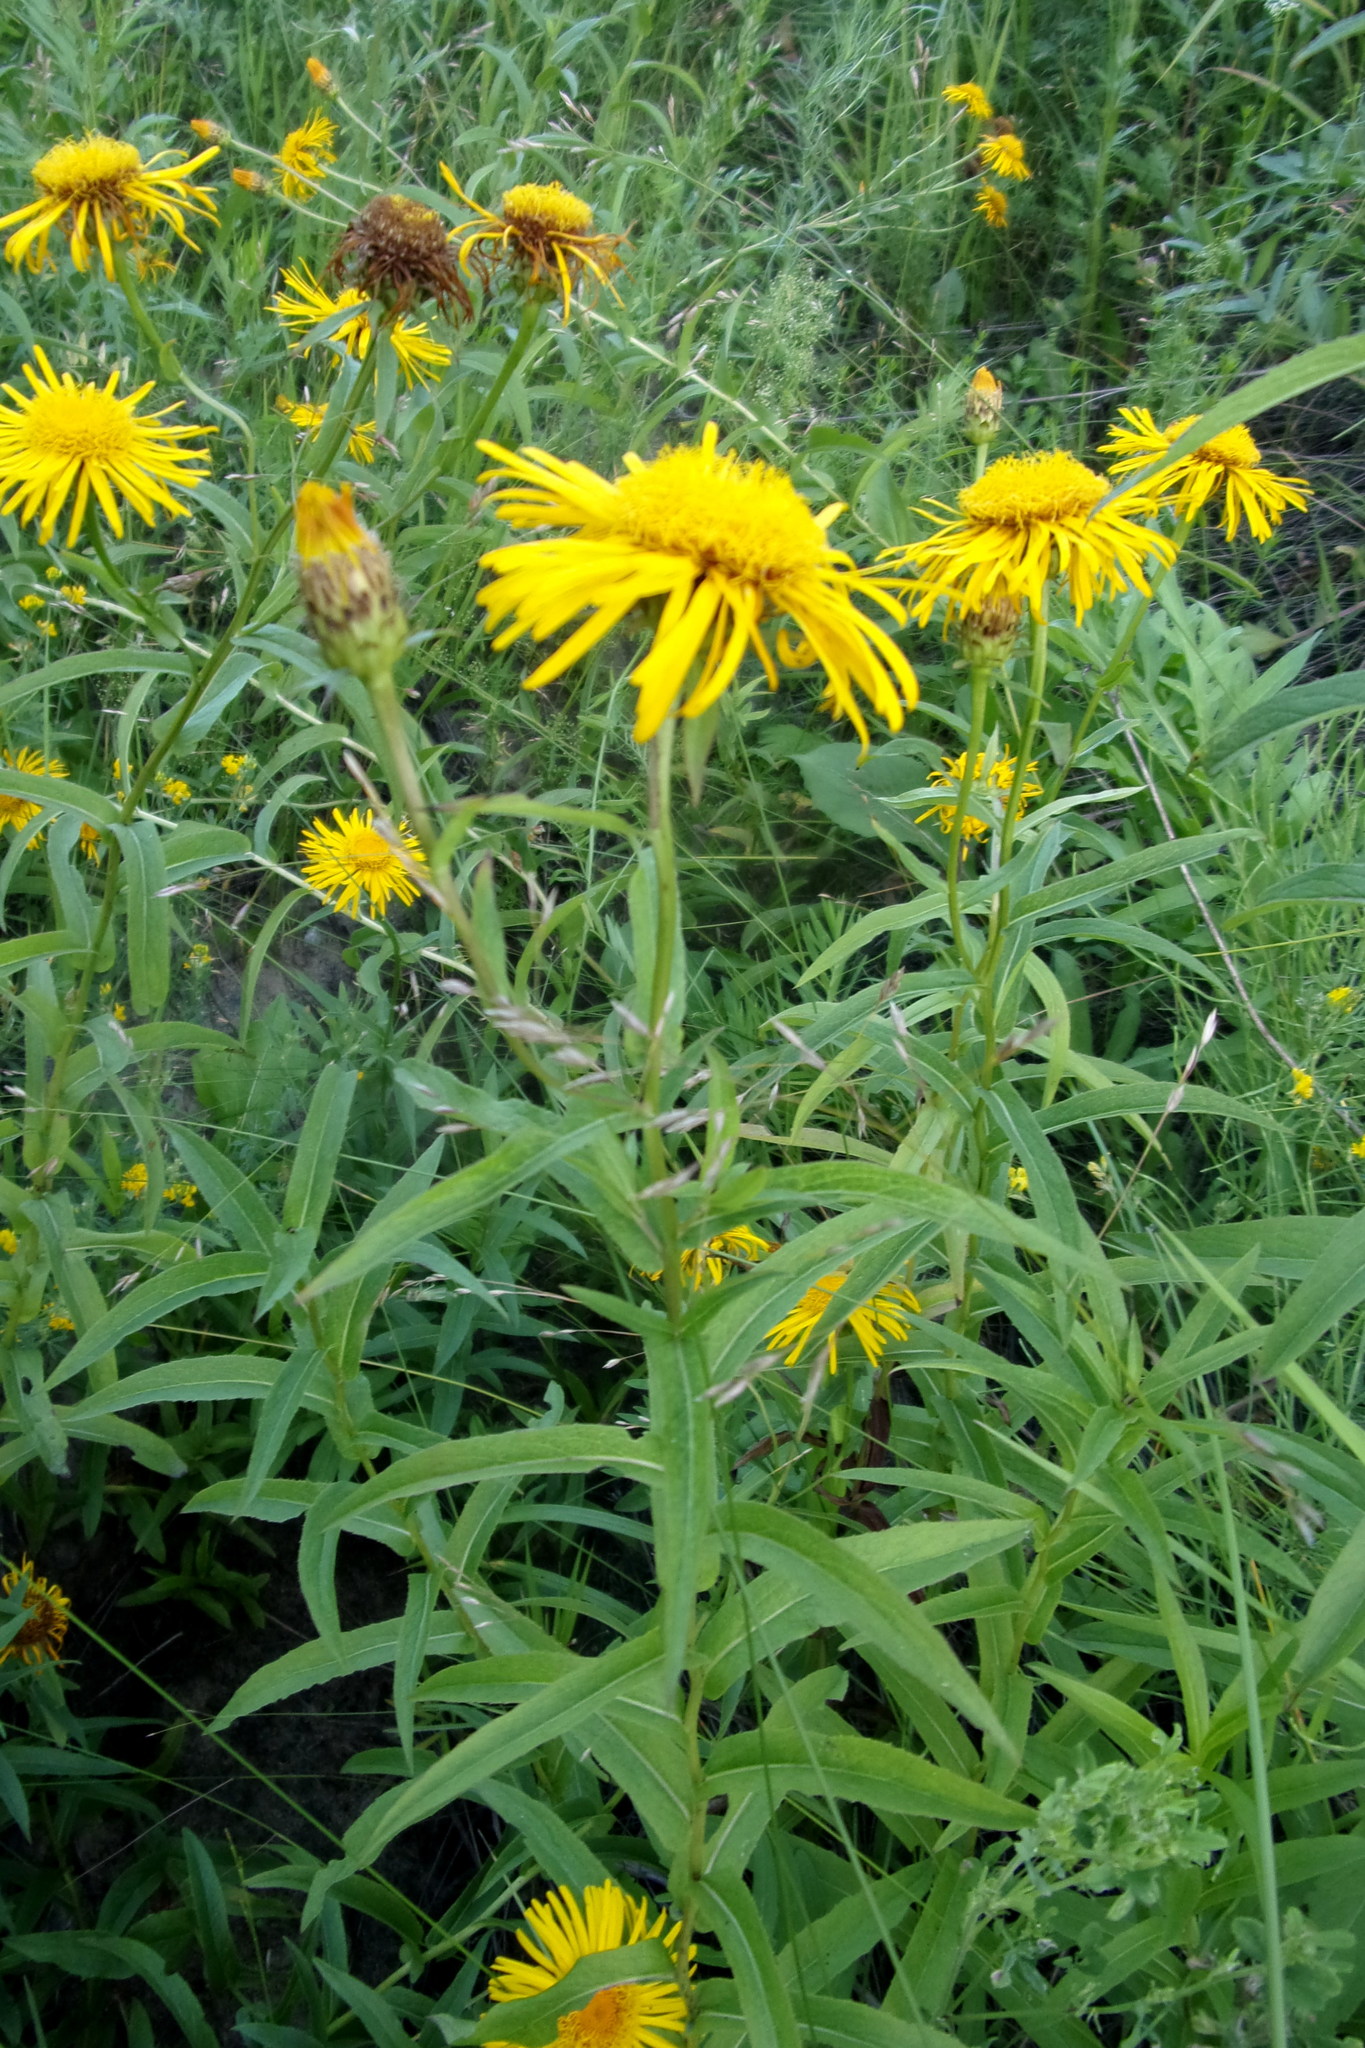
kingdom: Plantae
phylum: Tracheophyta
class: Magnoliopsida
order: Asterales
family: Asteraceae
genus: Pentanema
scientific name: Pentanema salicinum
